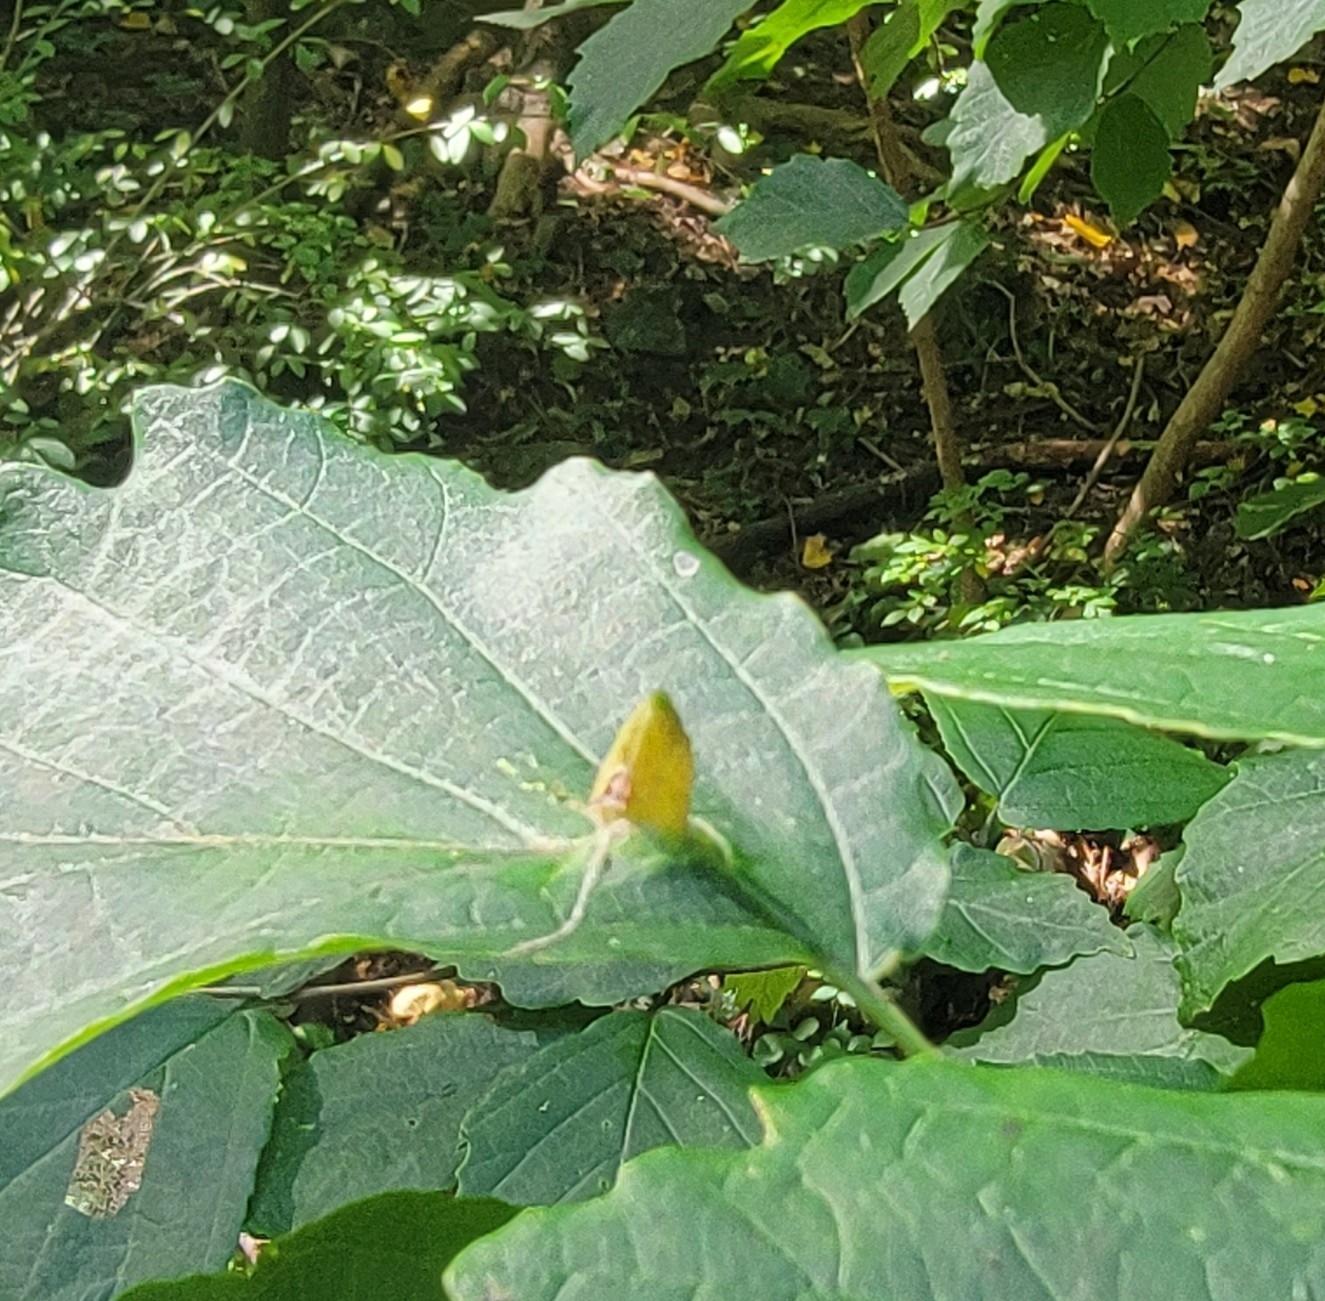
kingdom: Animalia
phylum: Arthropoda
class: Insecta
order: Hemiptera
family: Aphididae
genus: Hormaphis
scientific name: Hormaphis hamamelidis
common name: Witch-hazel cone gall aphid
